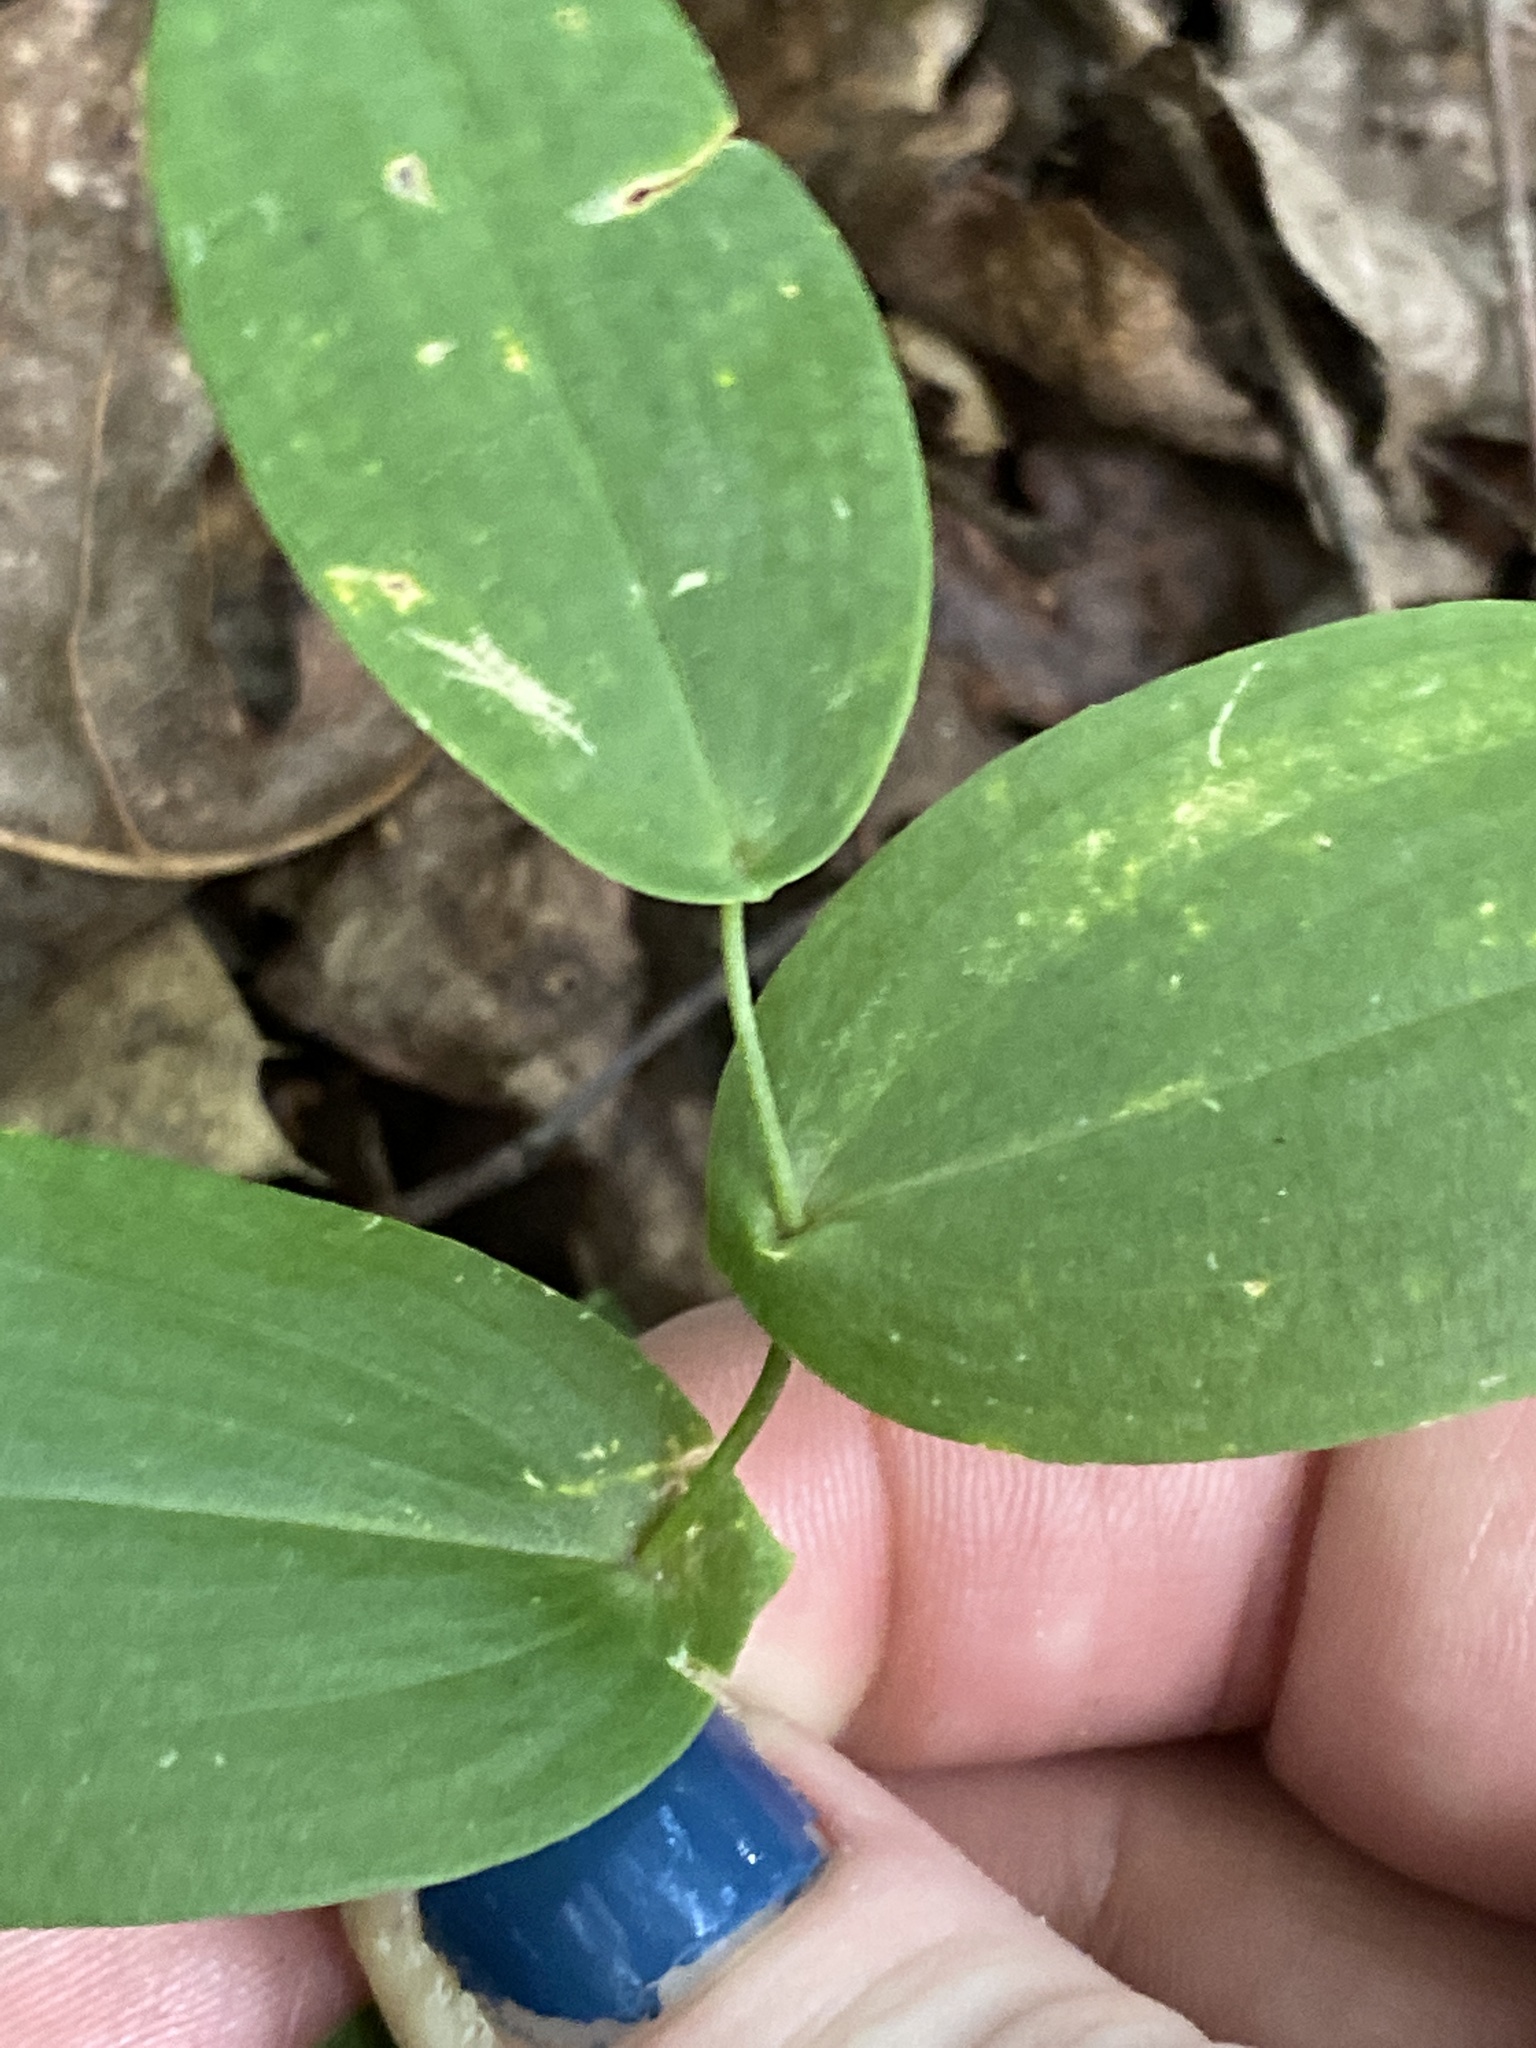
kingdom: Plantae
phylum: Tracheophyta
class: Liliopsida
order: Liliales
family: Colchicaceae
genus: Uvularia
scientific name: Uvularia perfoliata
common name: Perfoliate bellwort
